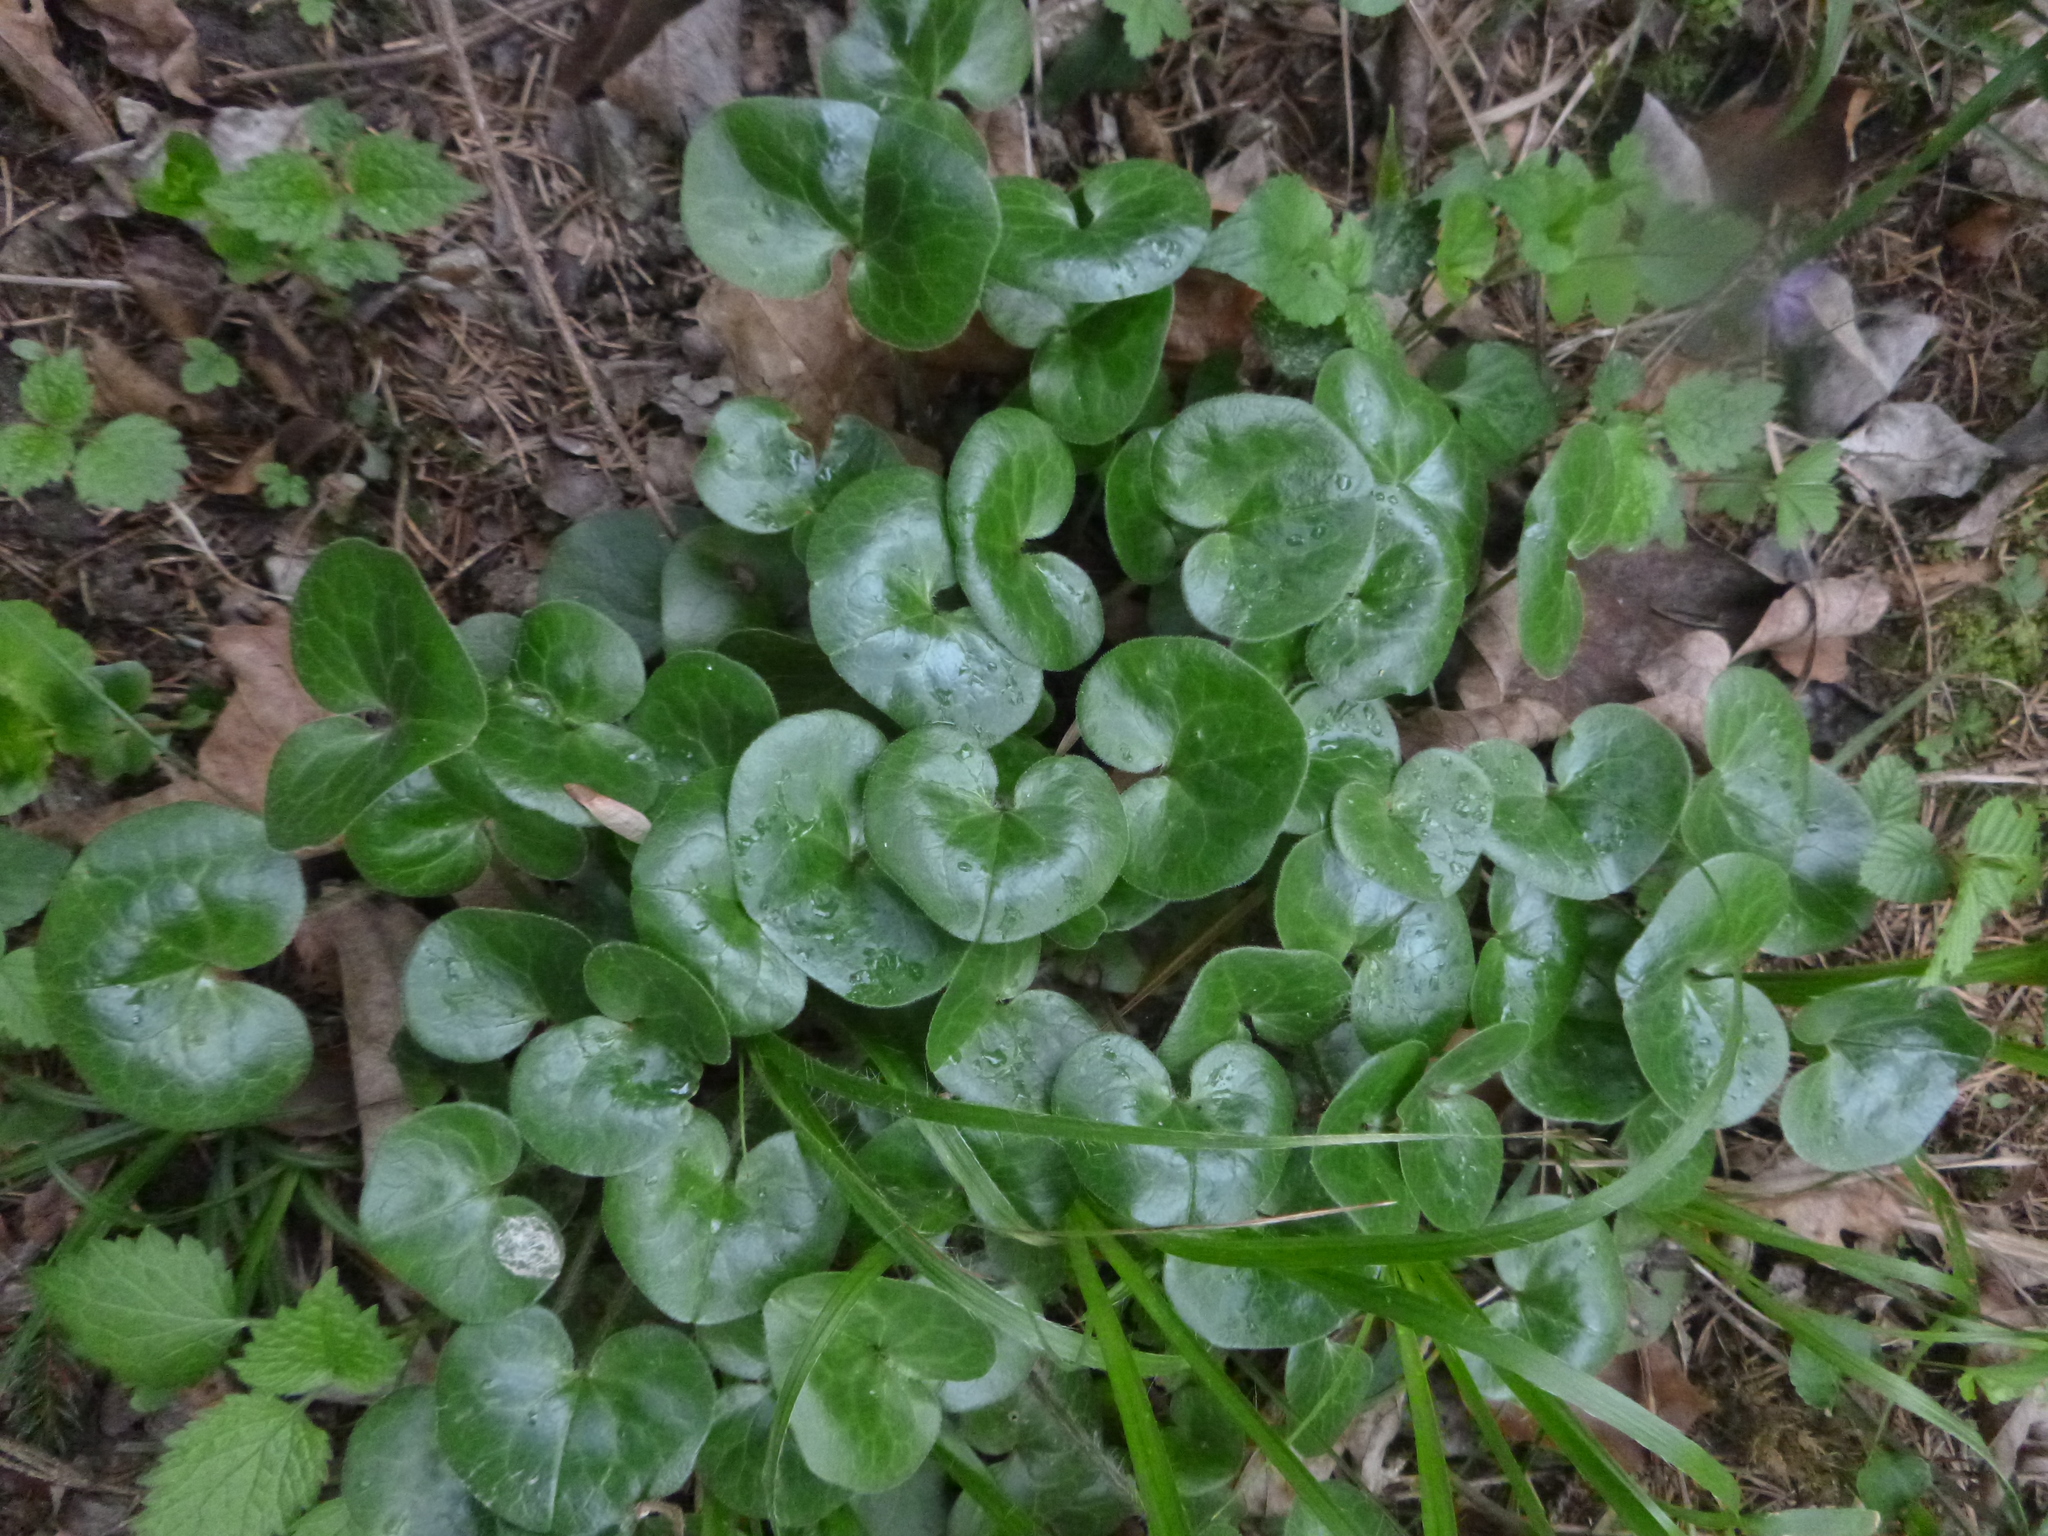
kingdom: Plantae
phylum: Tracheophyta
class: Magnoliopsida
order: Piperales
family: Aristolochiaceae
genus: Asarum
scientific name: Asarum europaeum
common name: Asarabacca
